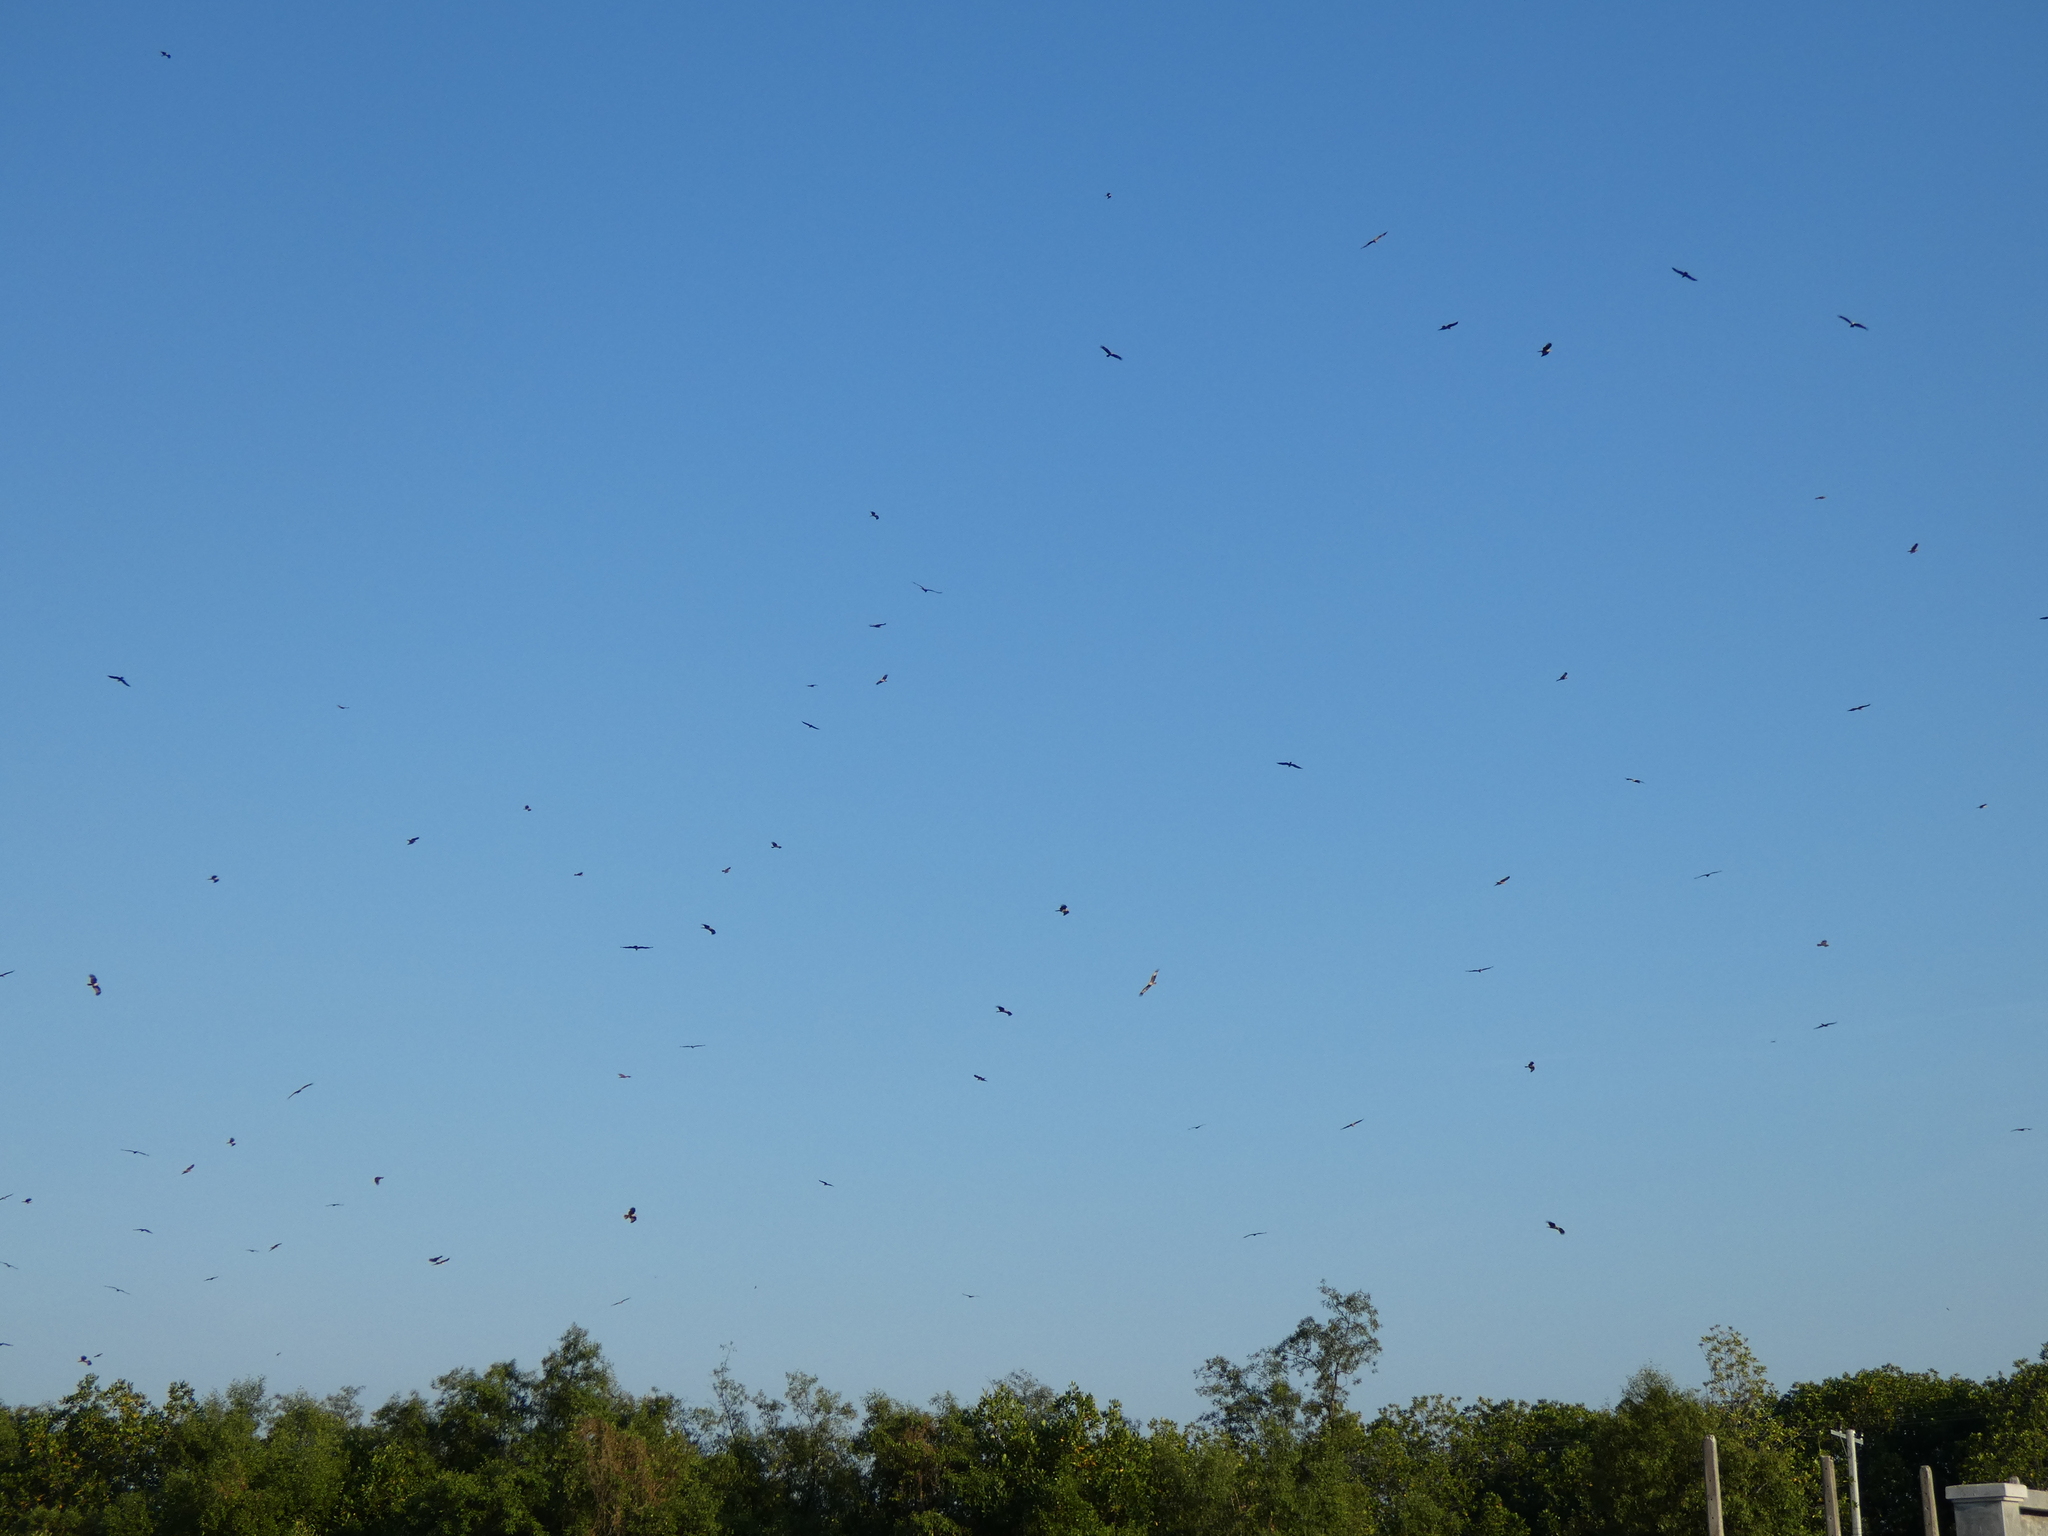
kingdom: Animalia
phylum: Chordata
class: Aves
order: Accipitriformes
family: Accipitridae
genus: Haliastur
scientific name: Haliastur indus
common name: Brahminy kite
